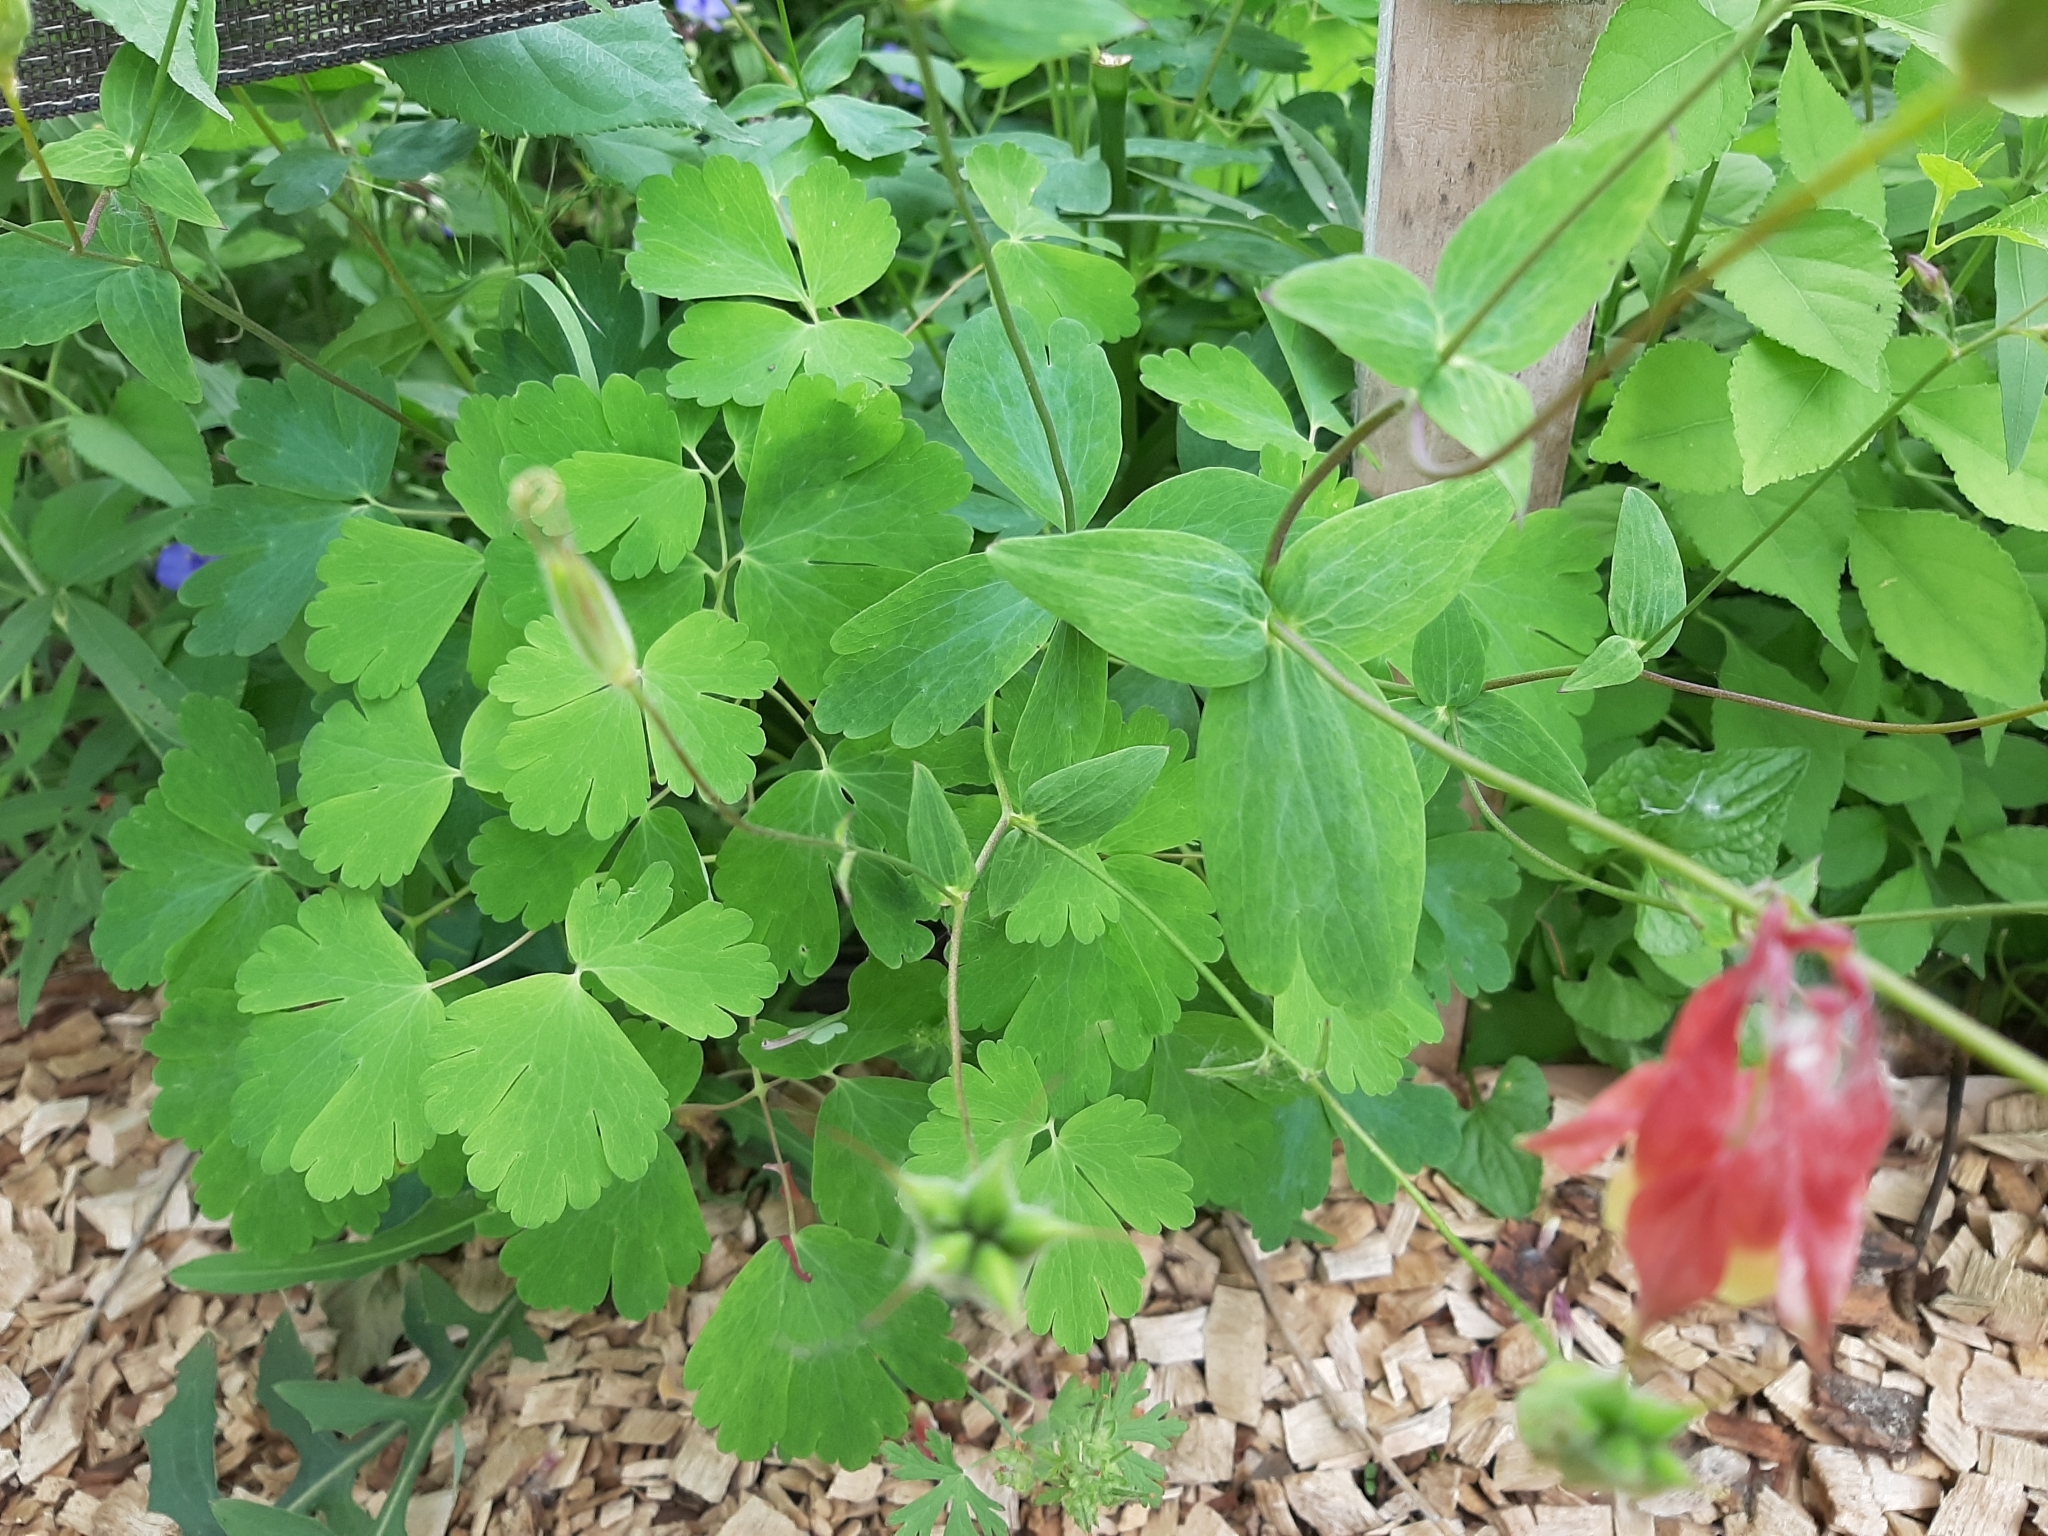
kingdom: Plantae
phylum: Tracheophyta
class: Magnoliopsida
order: Ranunculales
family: Ranunculaceae
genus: Aquilegia
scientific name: Aquilegia canadensis
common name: American columbine
